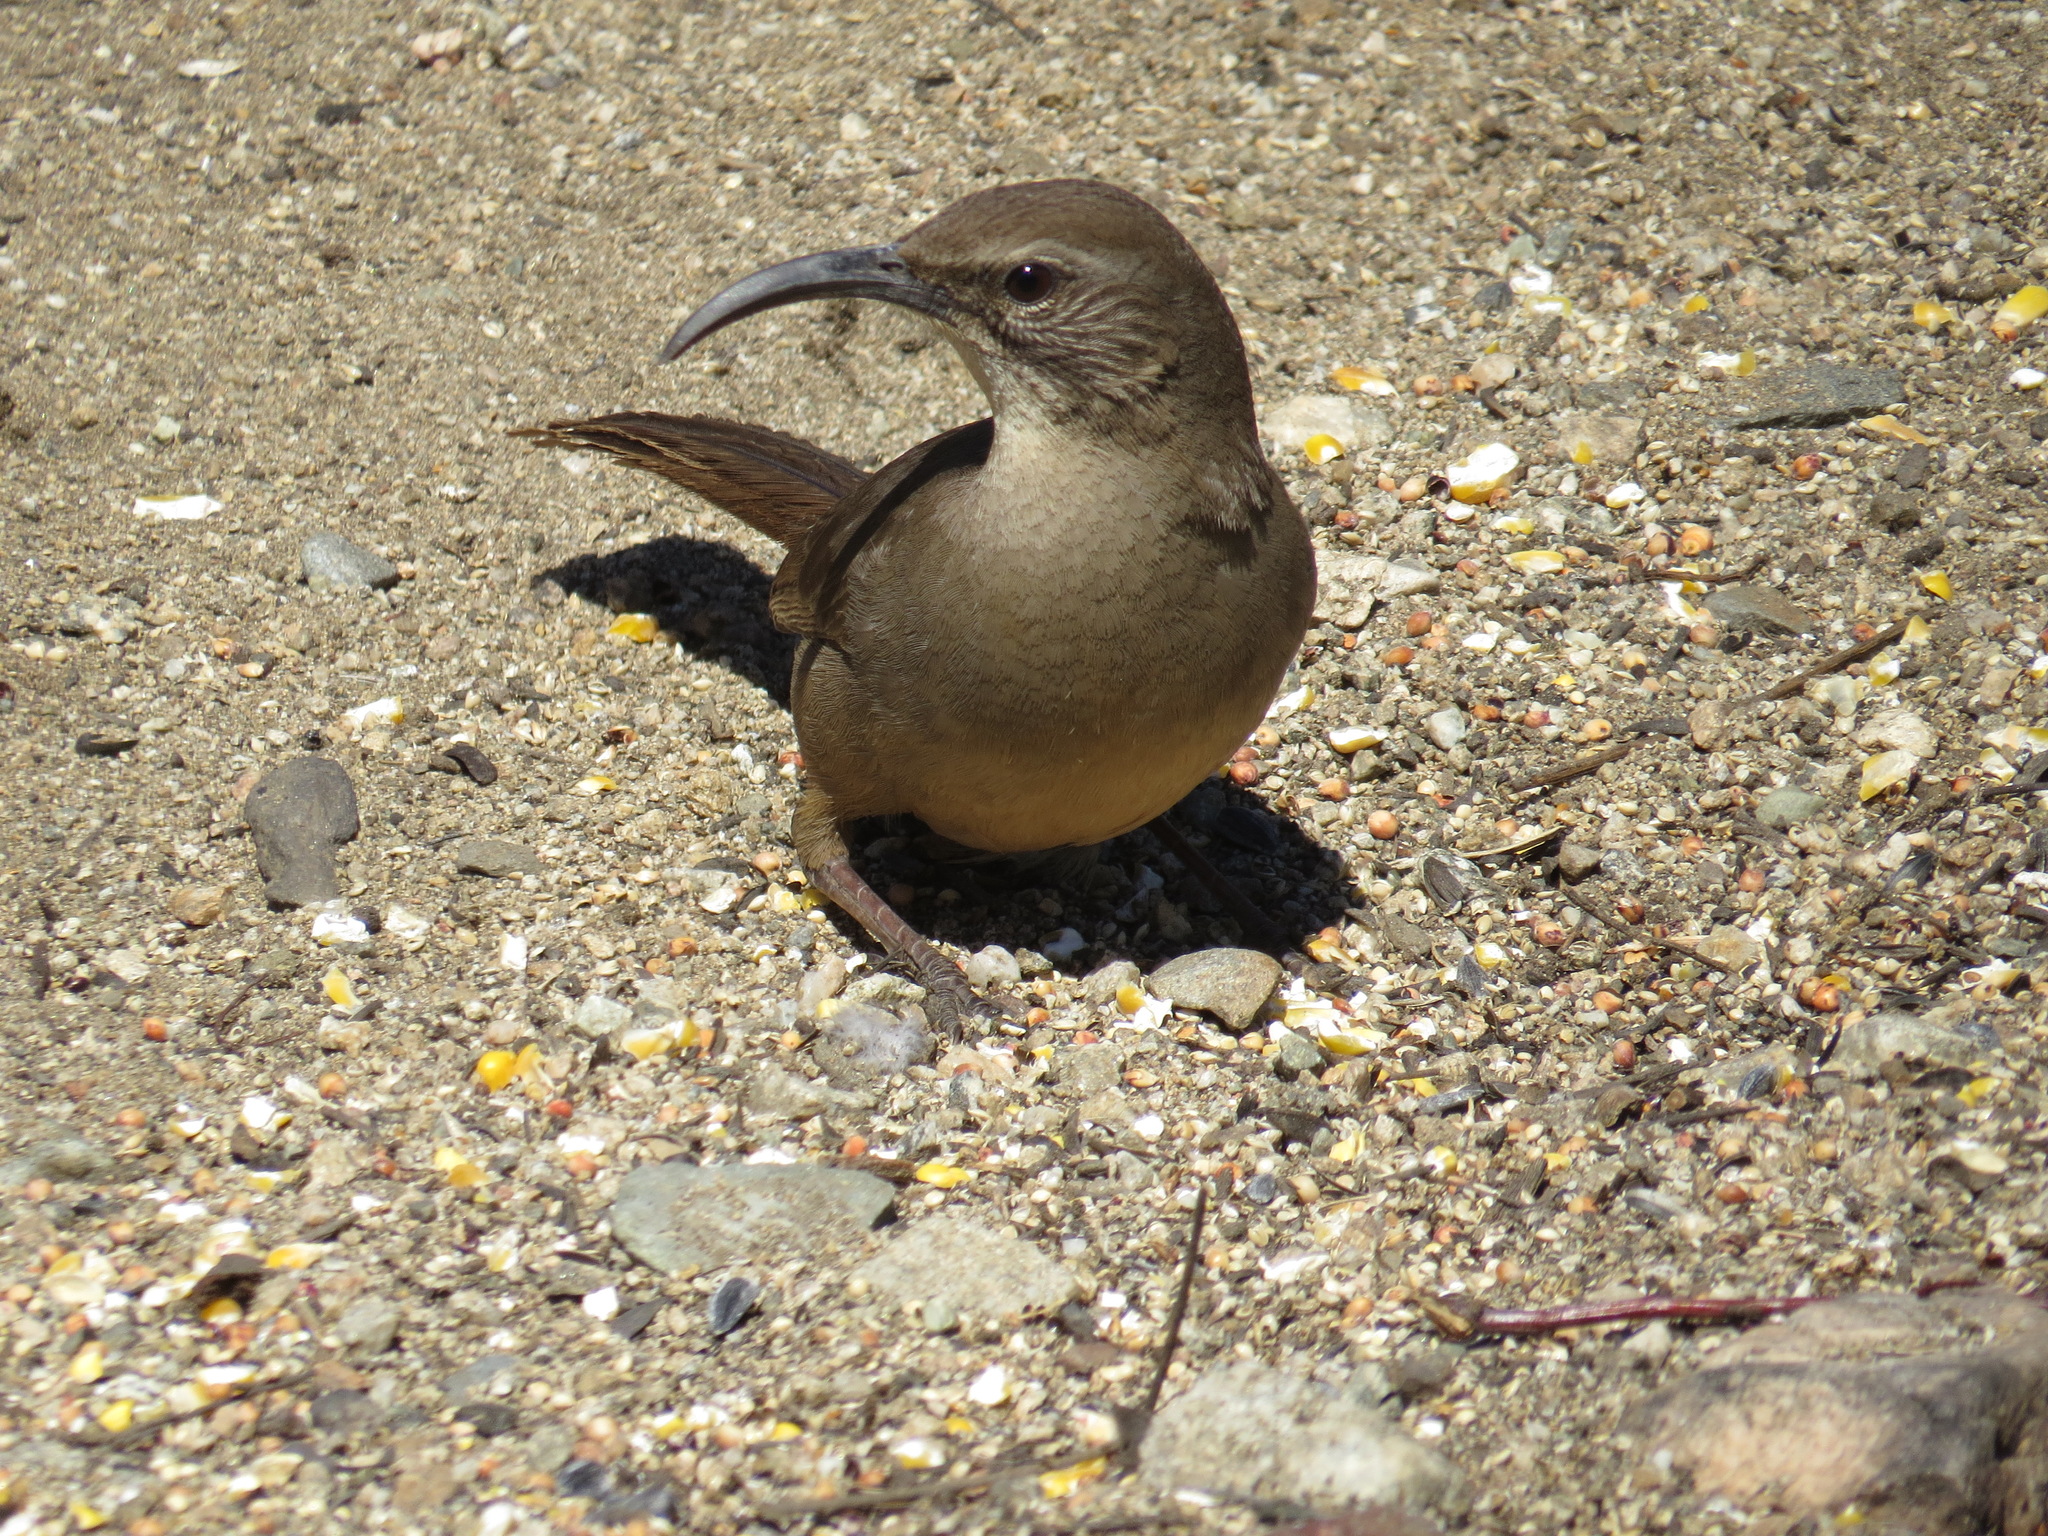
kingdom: Animalia
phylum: Chordata
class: Aves
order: Passeriformes
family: Mimidae
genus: Toxostoma
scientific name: Toxostoma redivivum
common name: California thrasher
